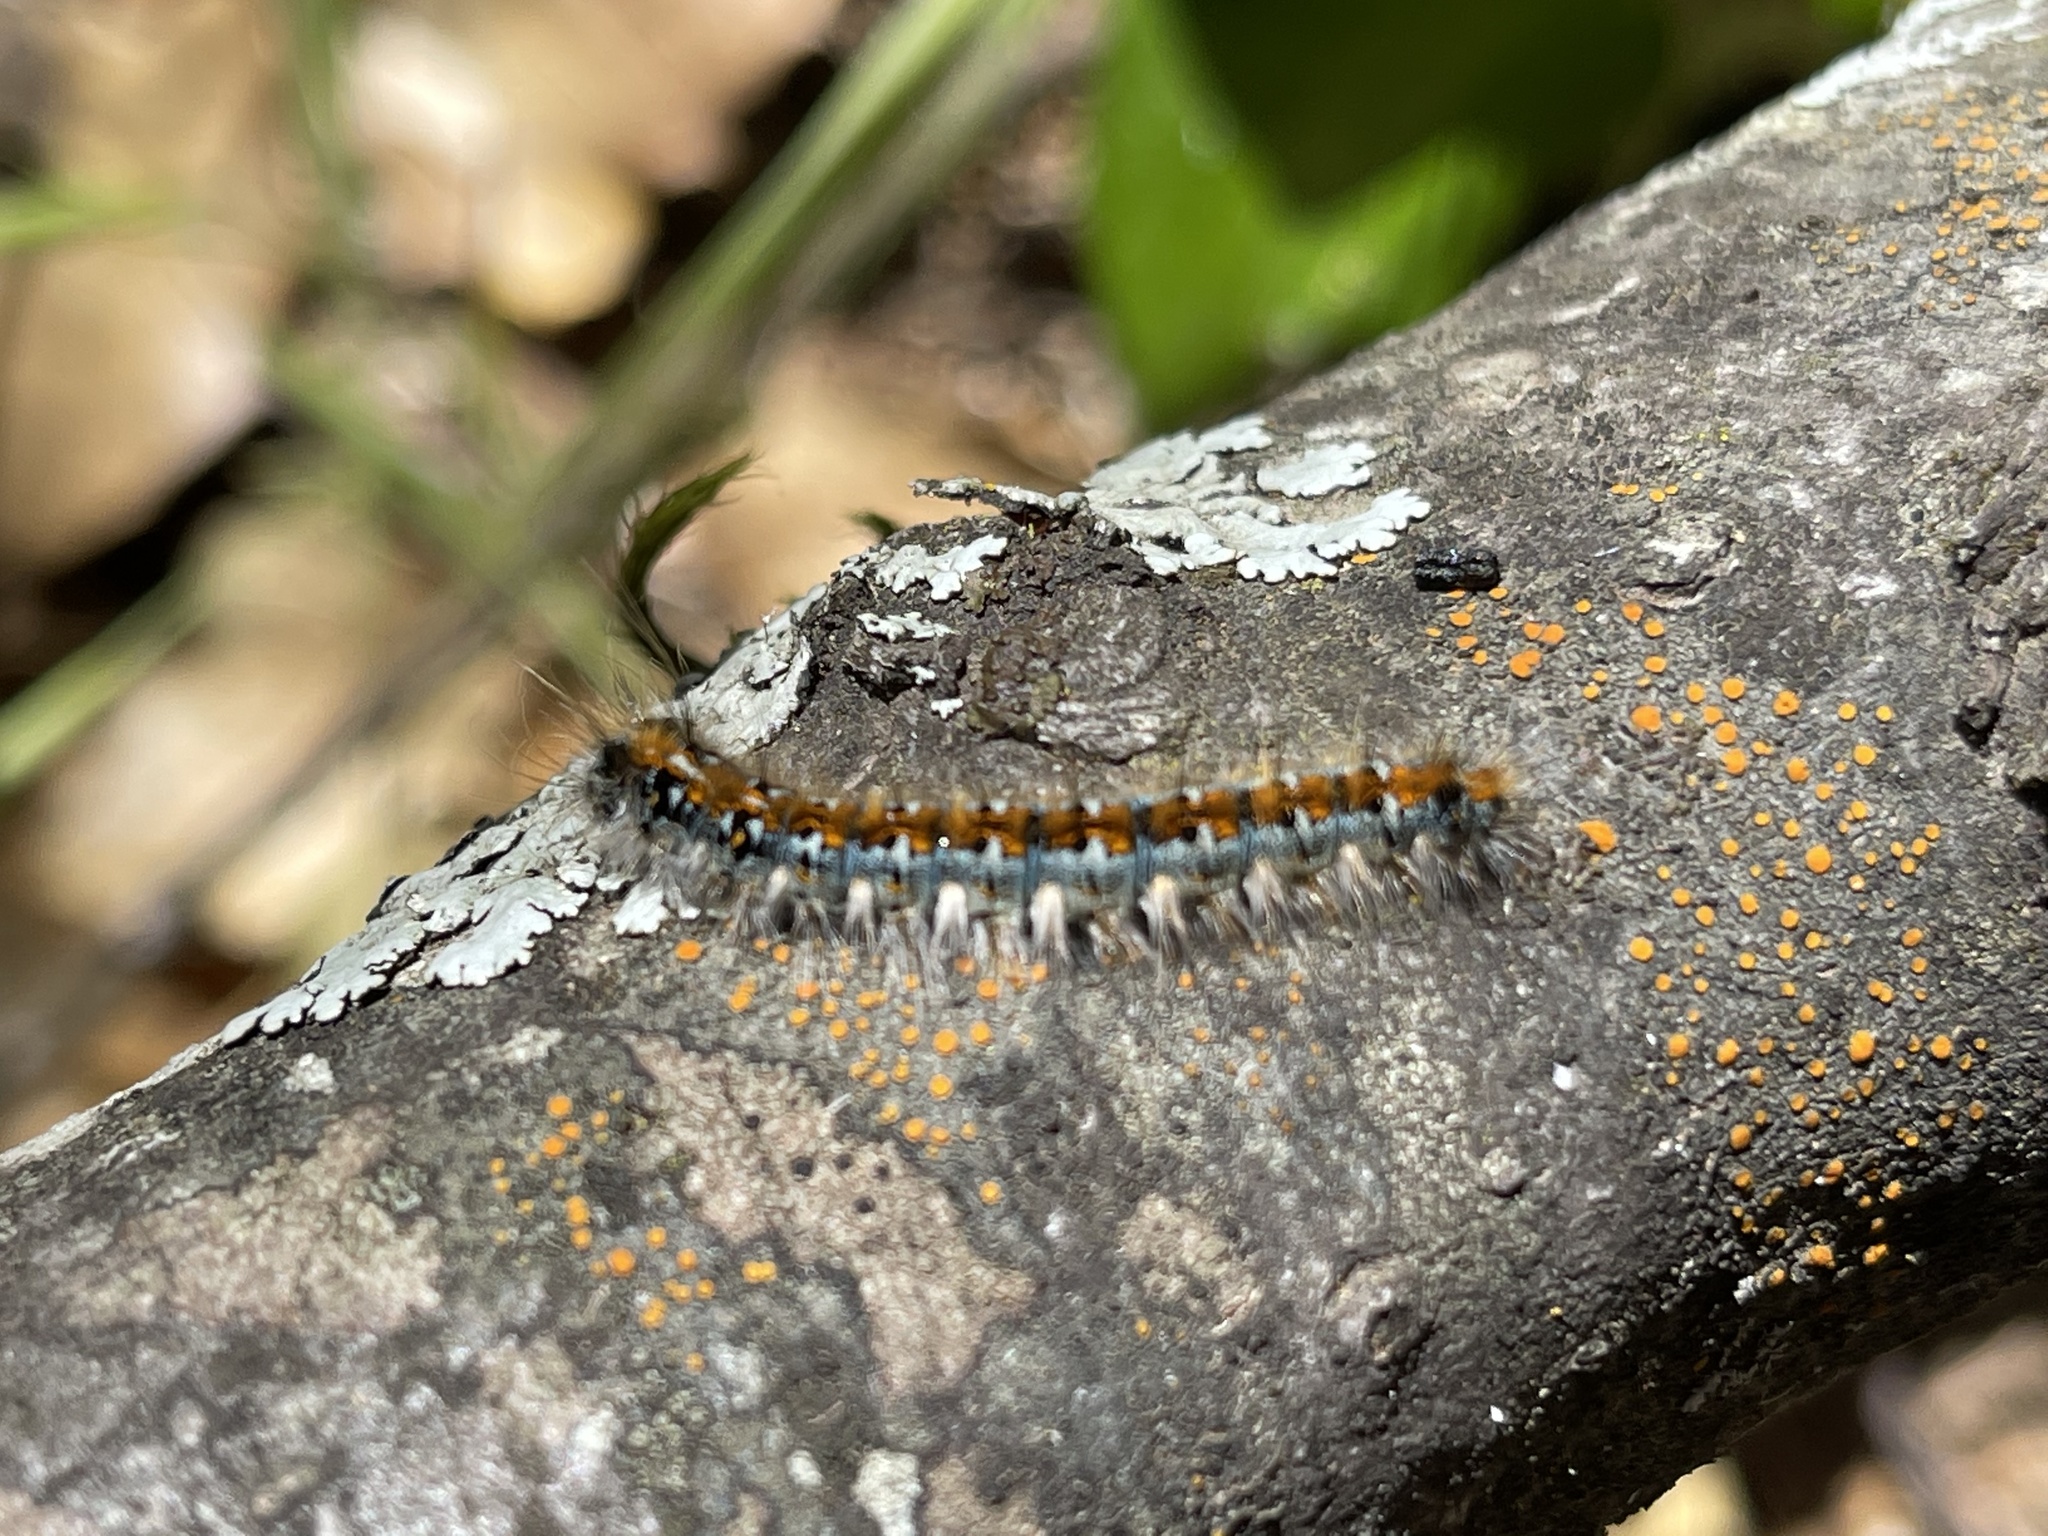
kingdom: Animalia
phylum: Arthropoda
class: Insecta
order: Lepidoptera
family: Lasiocampidae
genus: Malacosoma
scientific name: Malacosoma constricta
